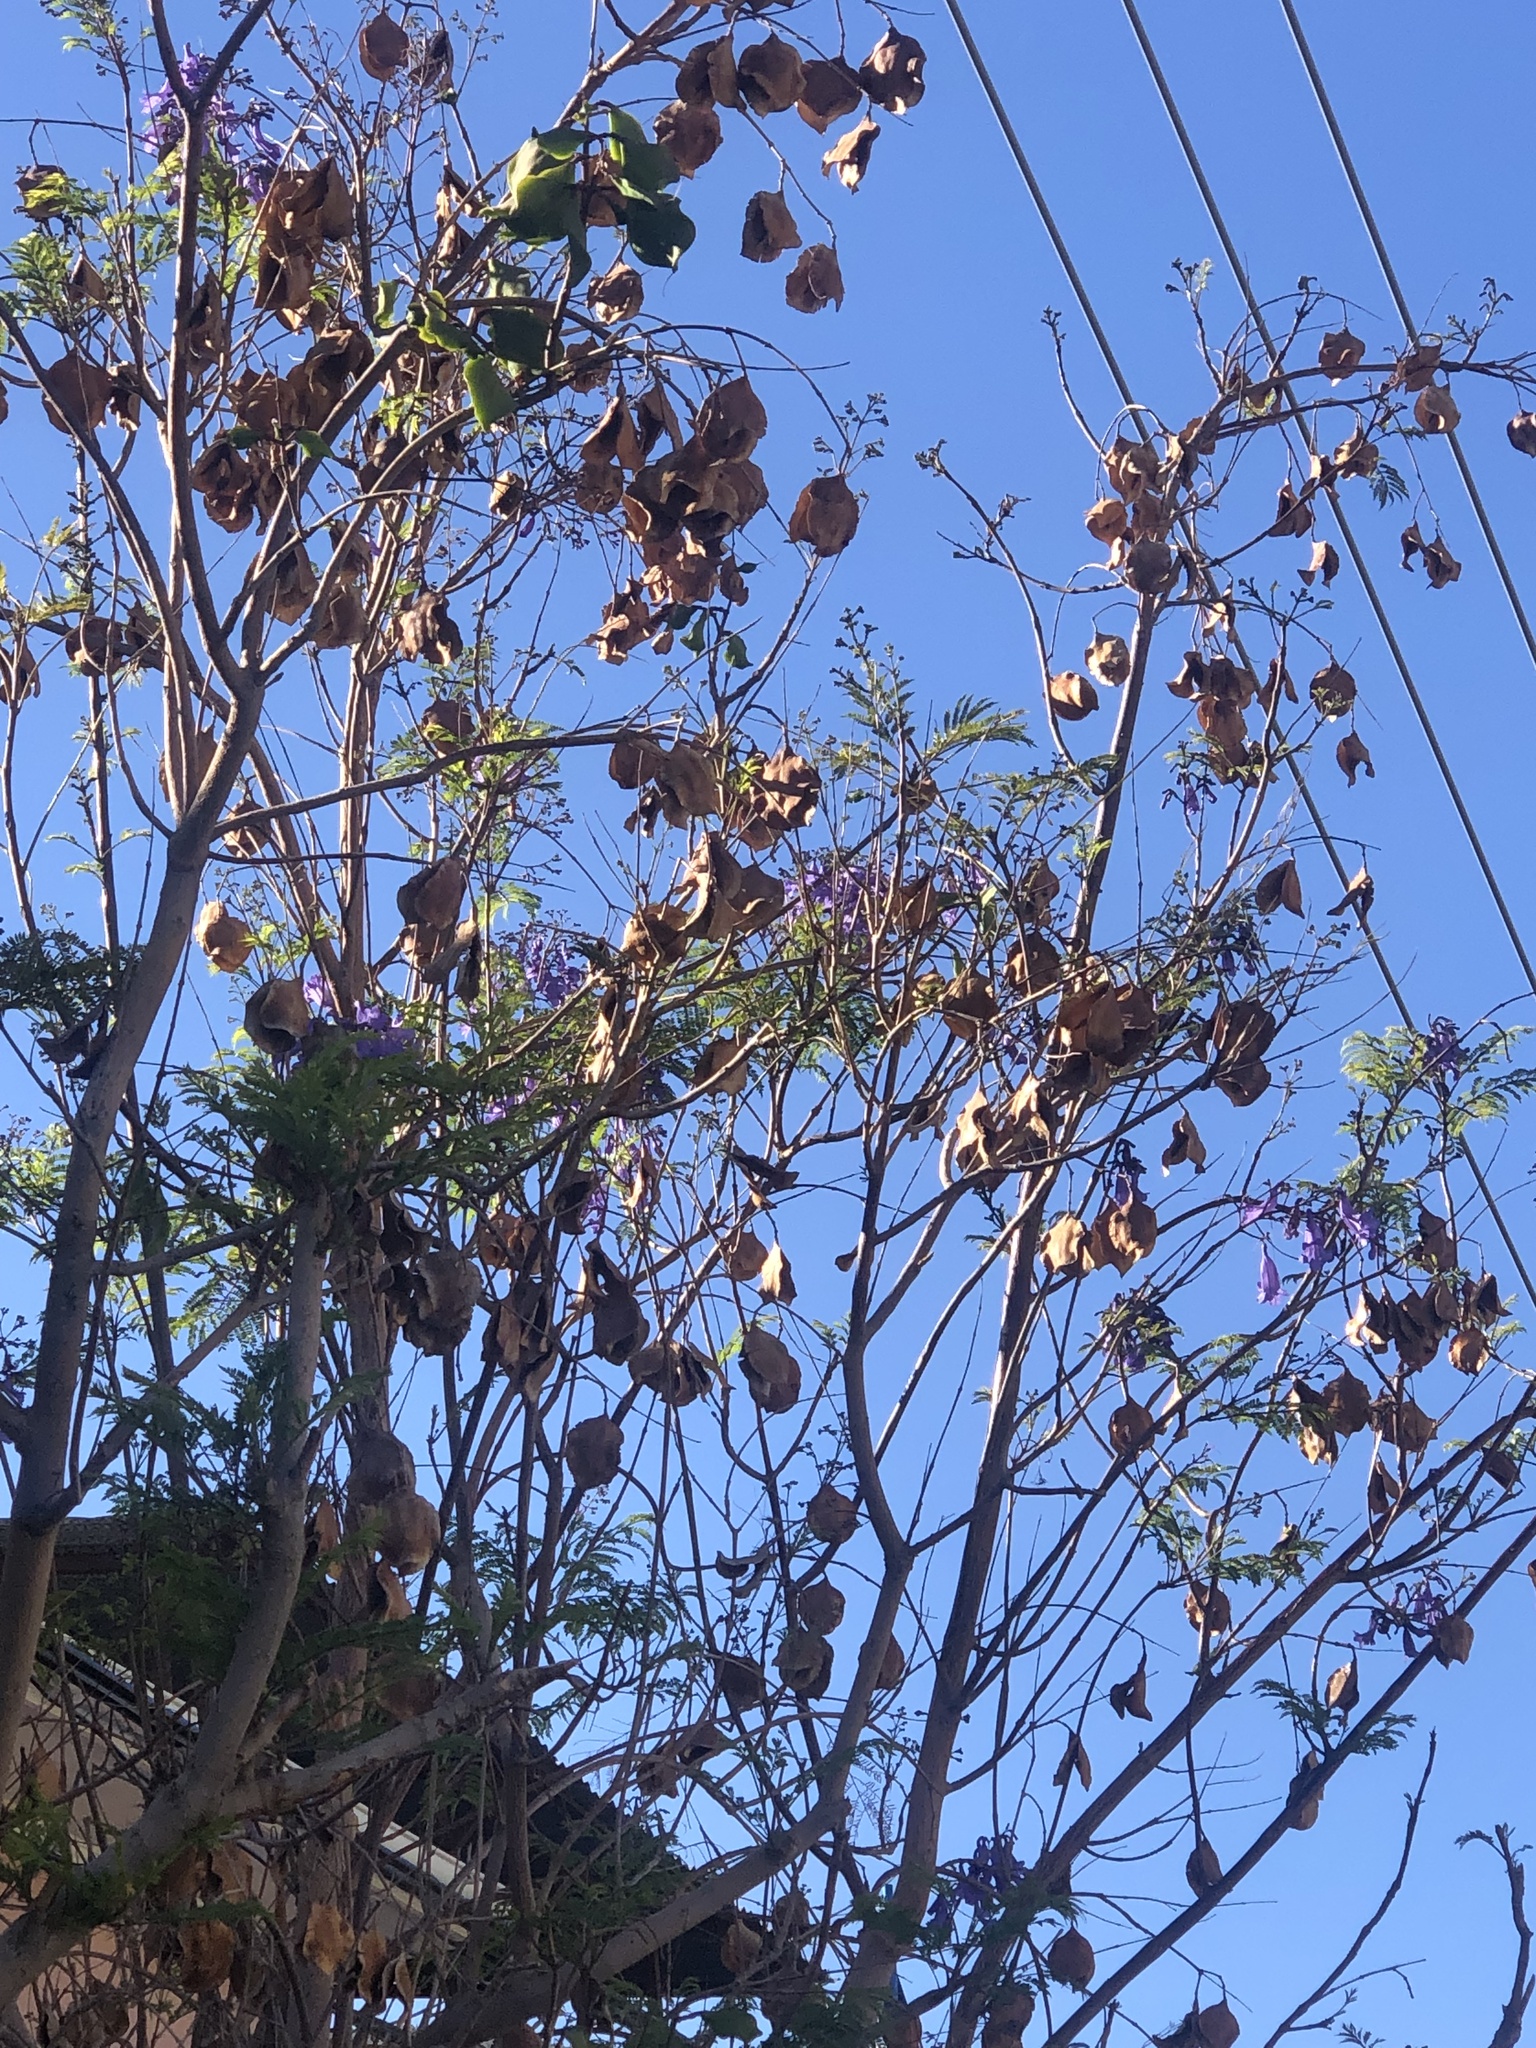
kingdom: Plantae
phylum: Tracheophyta
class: Magnoliopsida
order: Lamiales
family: Bignoniaceae
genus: Jacaranda
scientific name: Jacaranda mimosifolia
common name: Black poui
